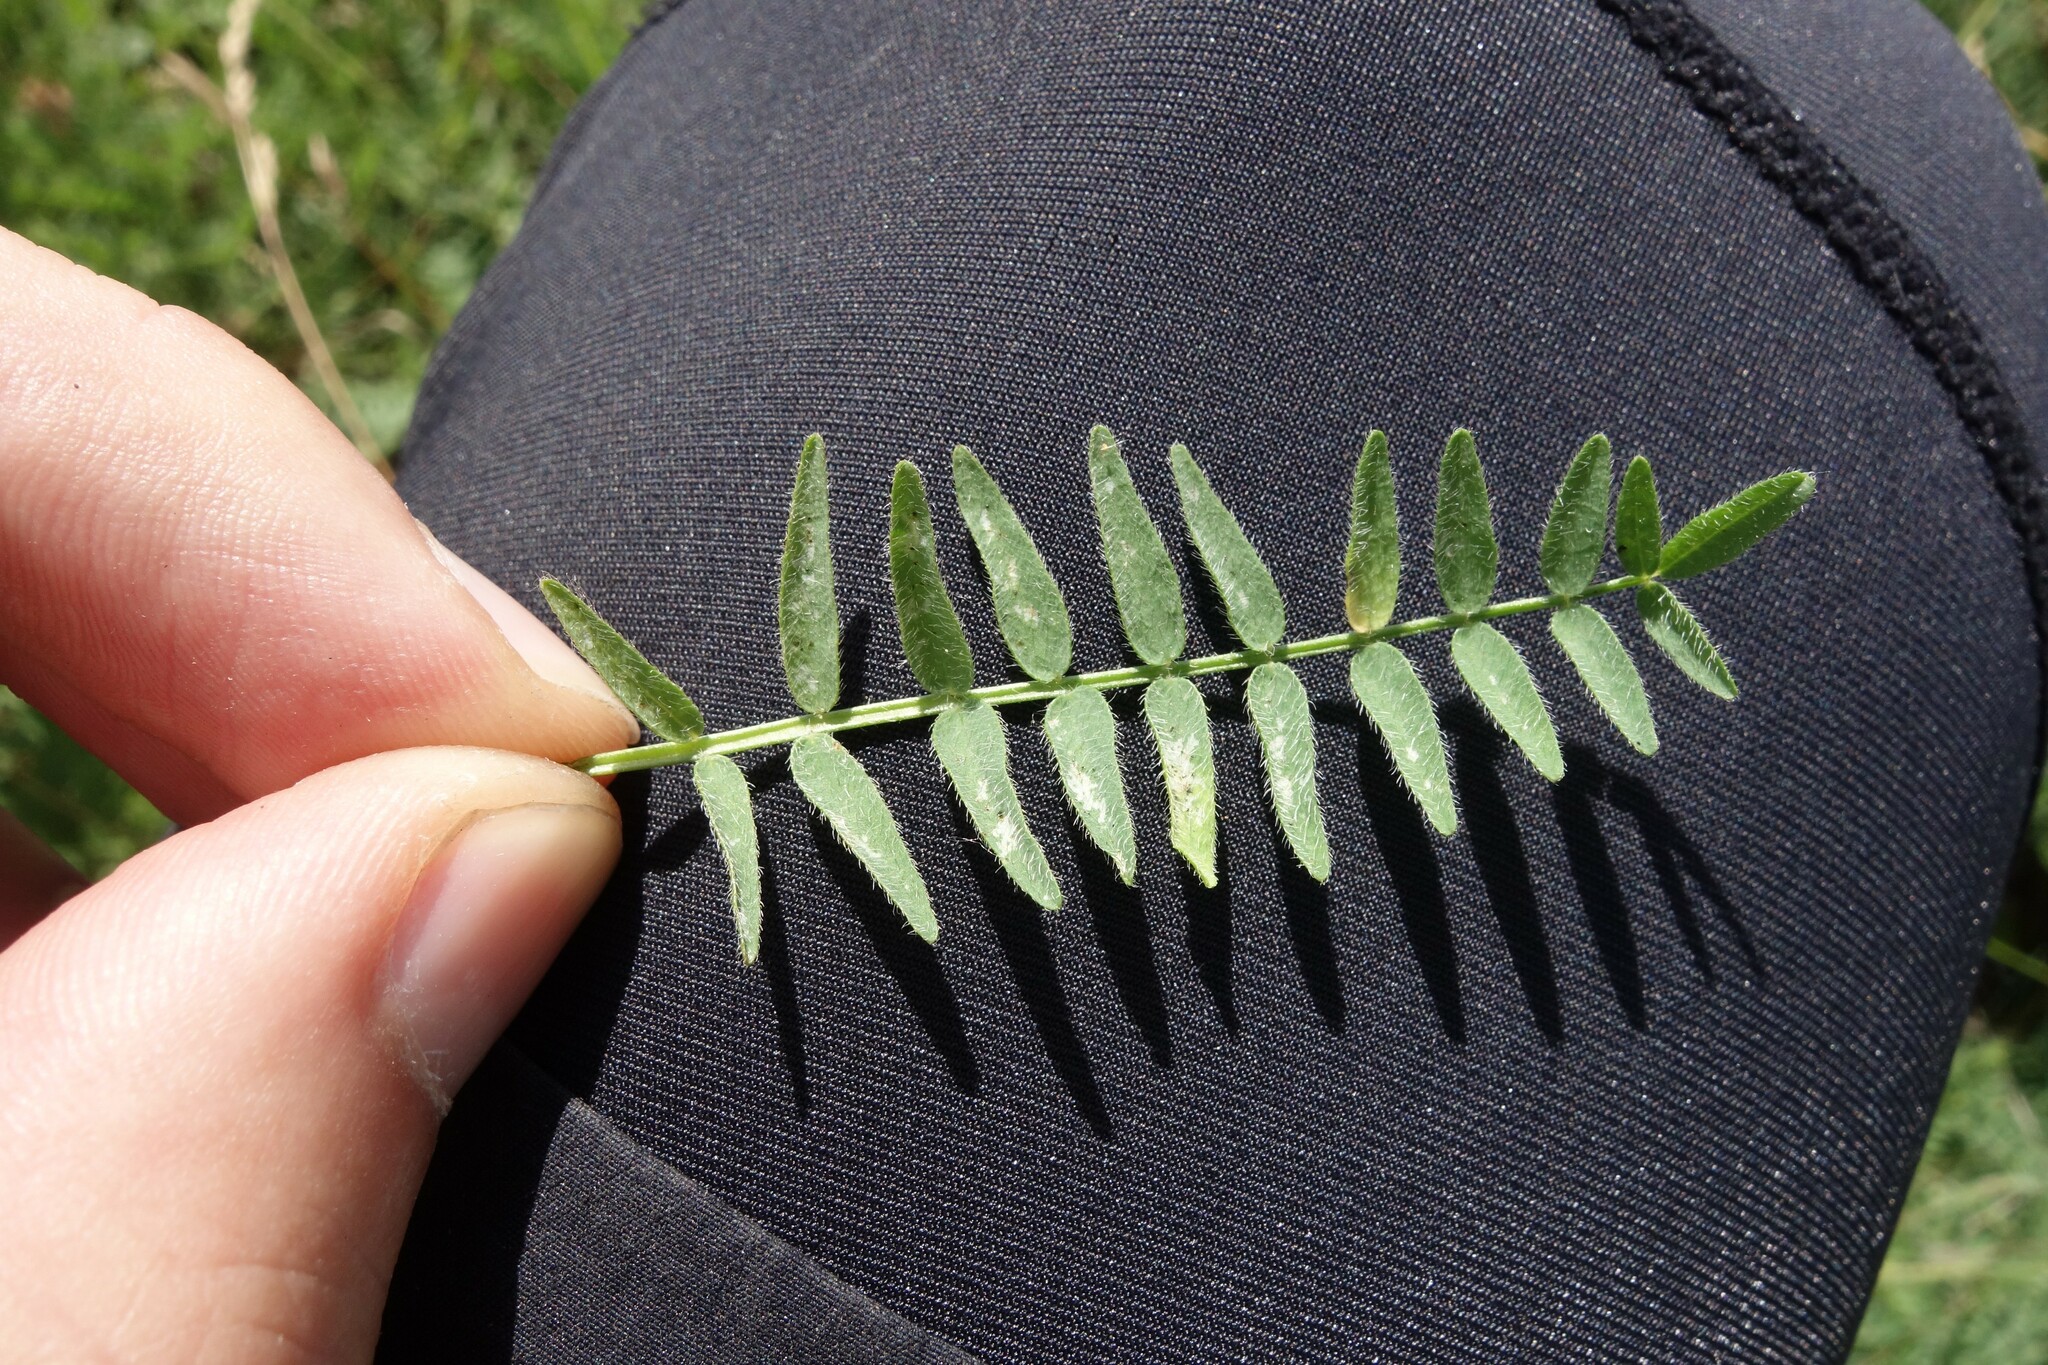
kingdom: Plantae
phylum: Tracheophyta
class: Magnoliopsida
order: Fabales
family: Fabaceae
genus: Astragalus
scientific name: Astragalus danicus
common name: Purple milk-vetch
